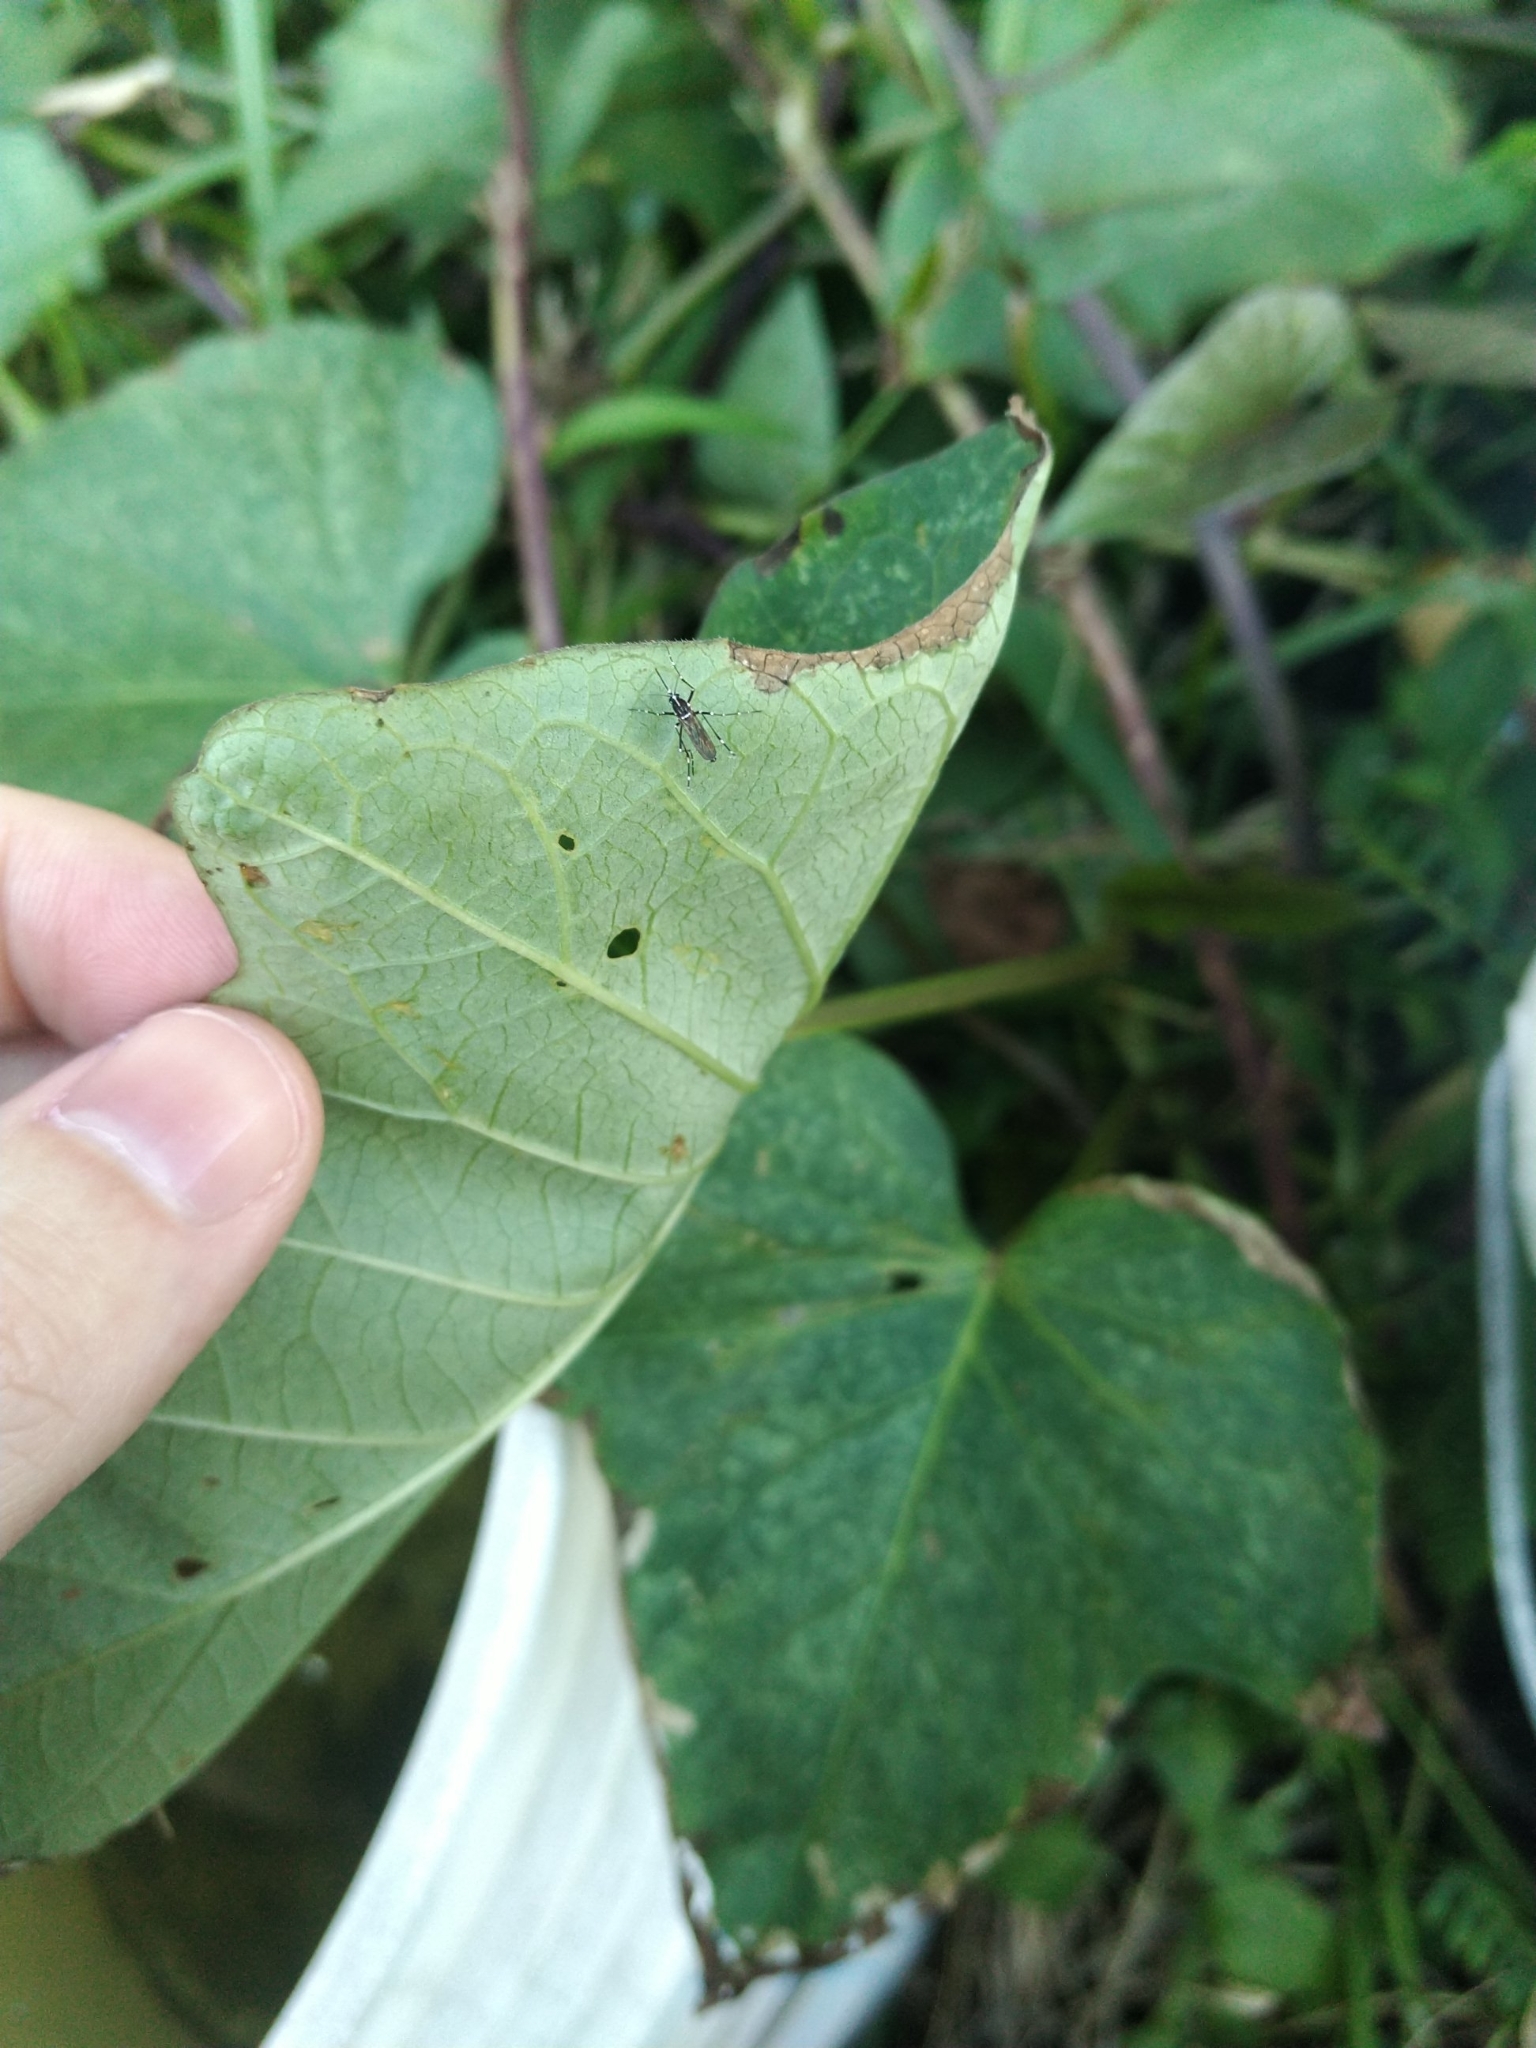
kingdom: Animalia
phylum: Arthropoda
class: Insecta
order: Diptera
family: Culicidae
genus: Aedes
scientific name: Aedes albopictus
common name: Tiger mosquito
